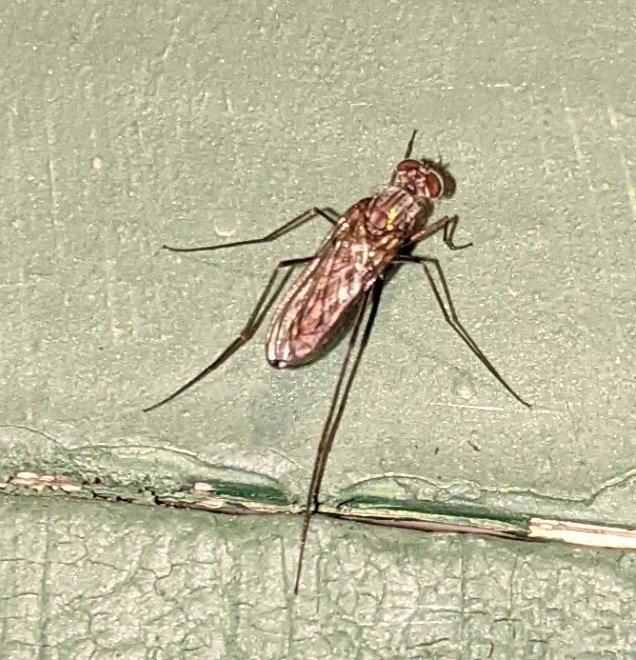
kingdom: Animalia
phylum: Arthropoda
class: Insecta
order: Diptera
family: Dolichopodidae
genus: Liancalus
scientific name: Liancalus genualis
